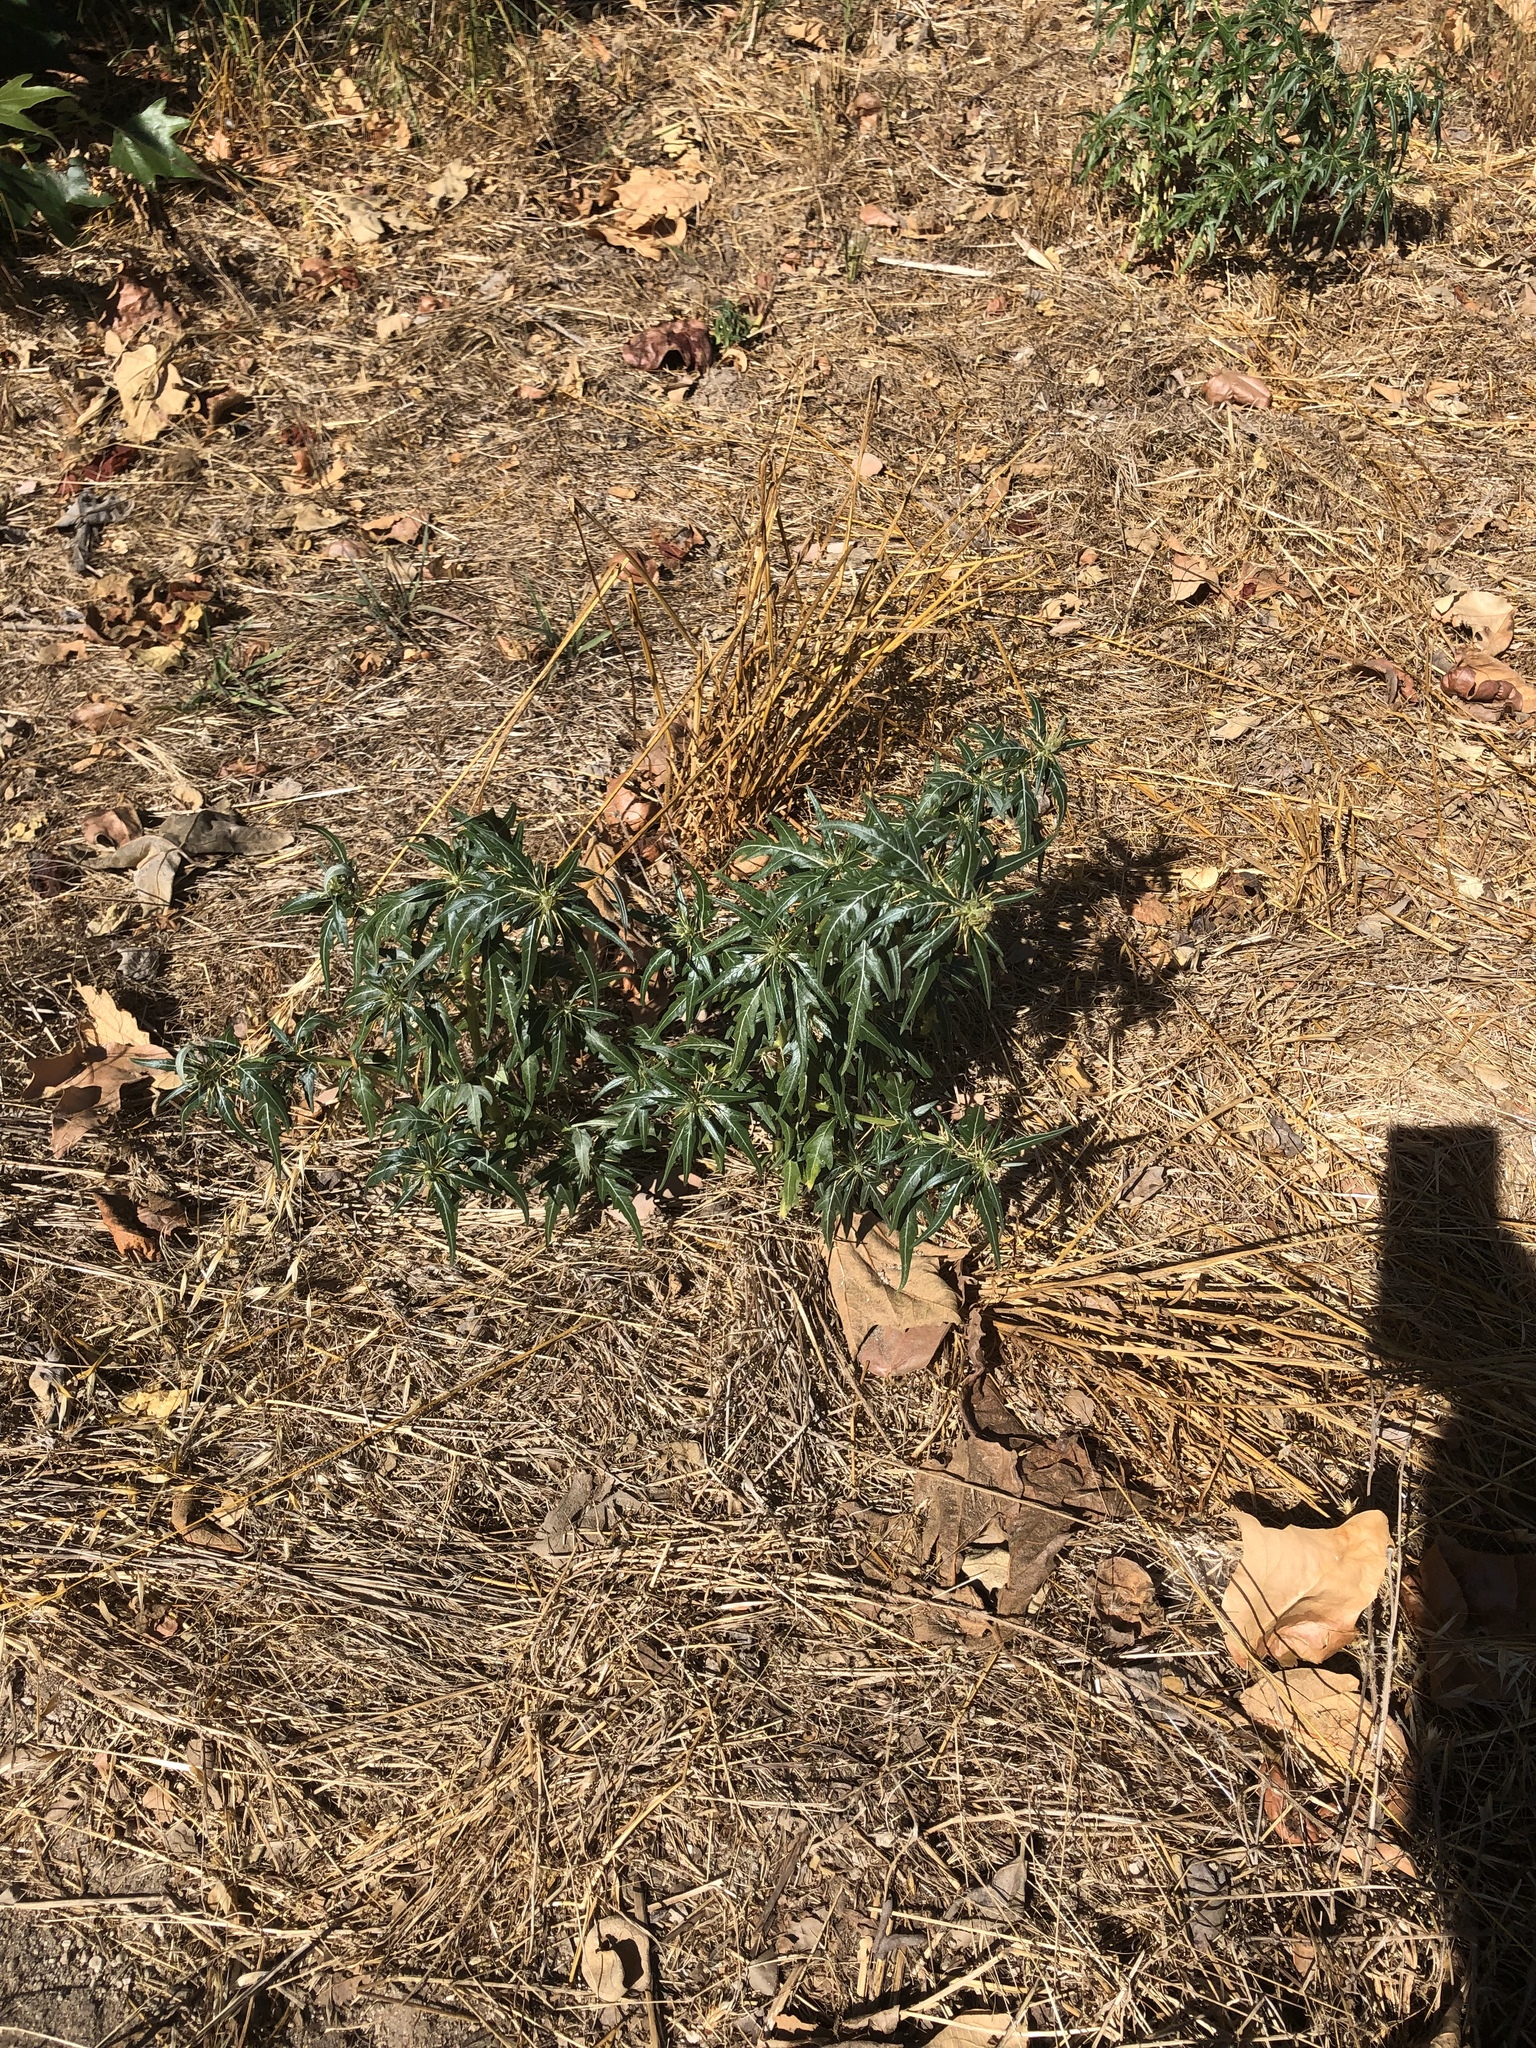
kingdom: Plantae
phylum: Tracheophyta
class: Magnoliopsida
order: Asterales
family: Asteraceae
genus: Xanthium
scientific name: Xanthium spinosum
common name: Spiny cocklebur
